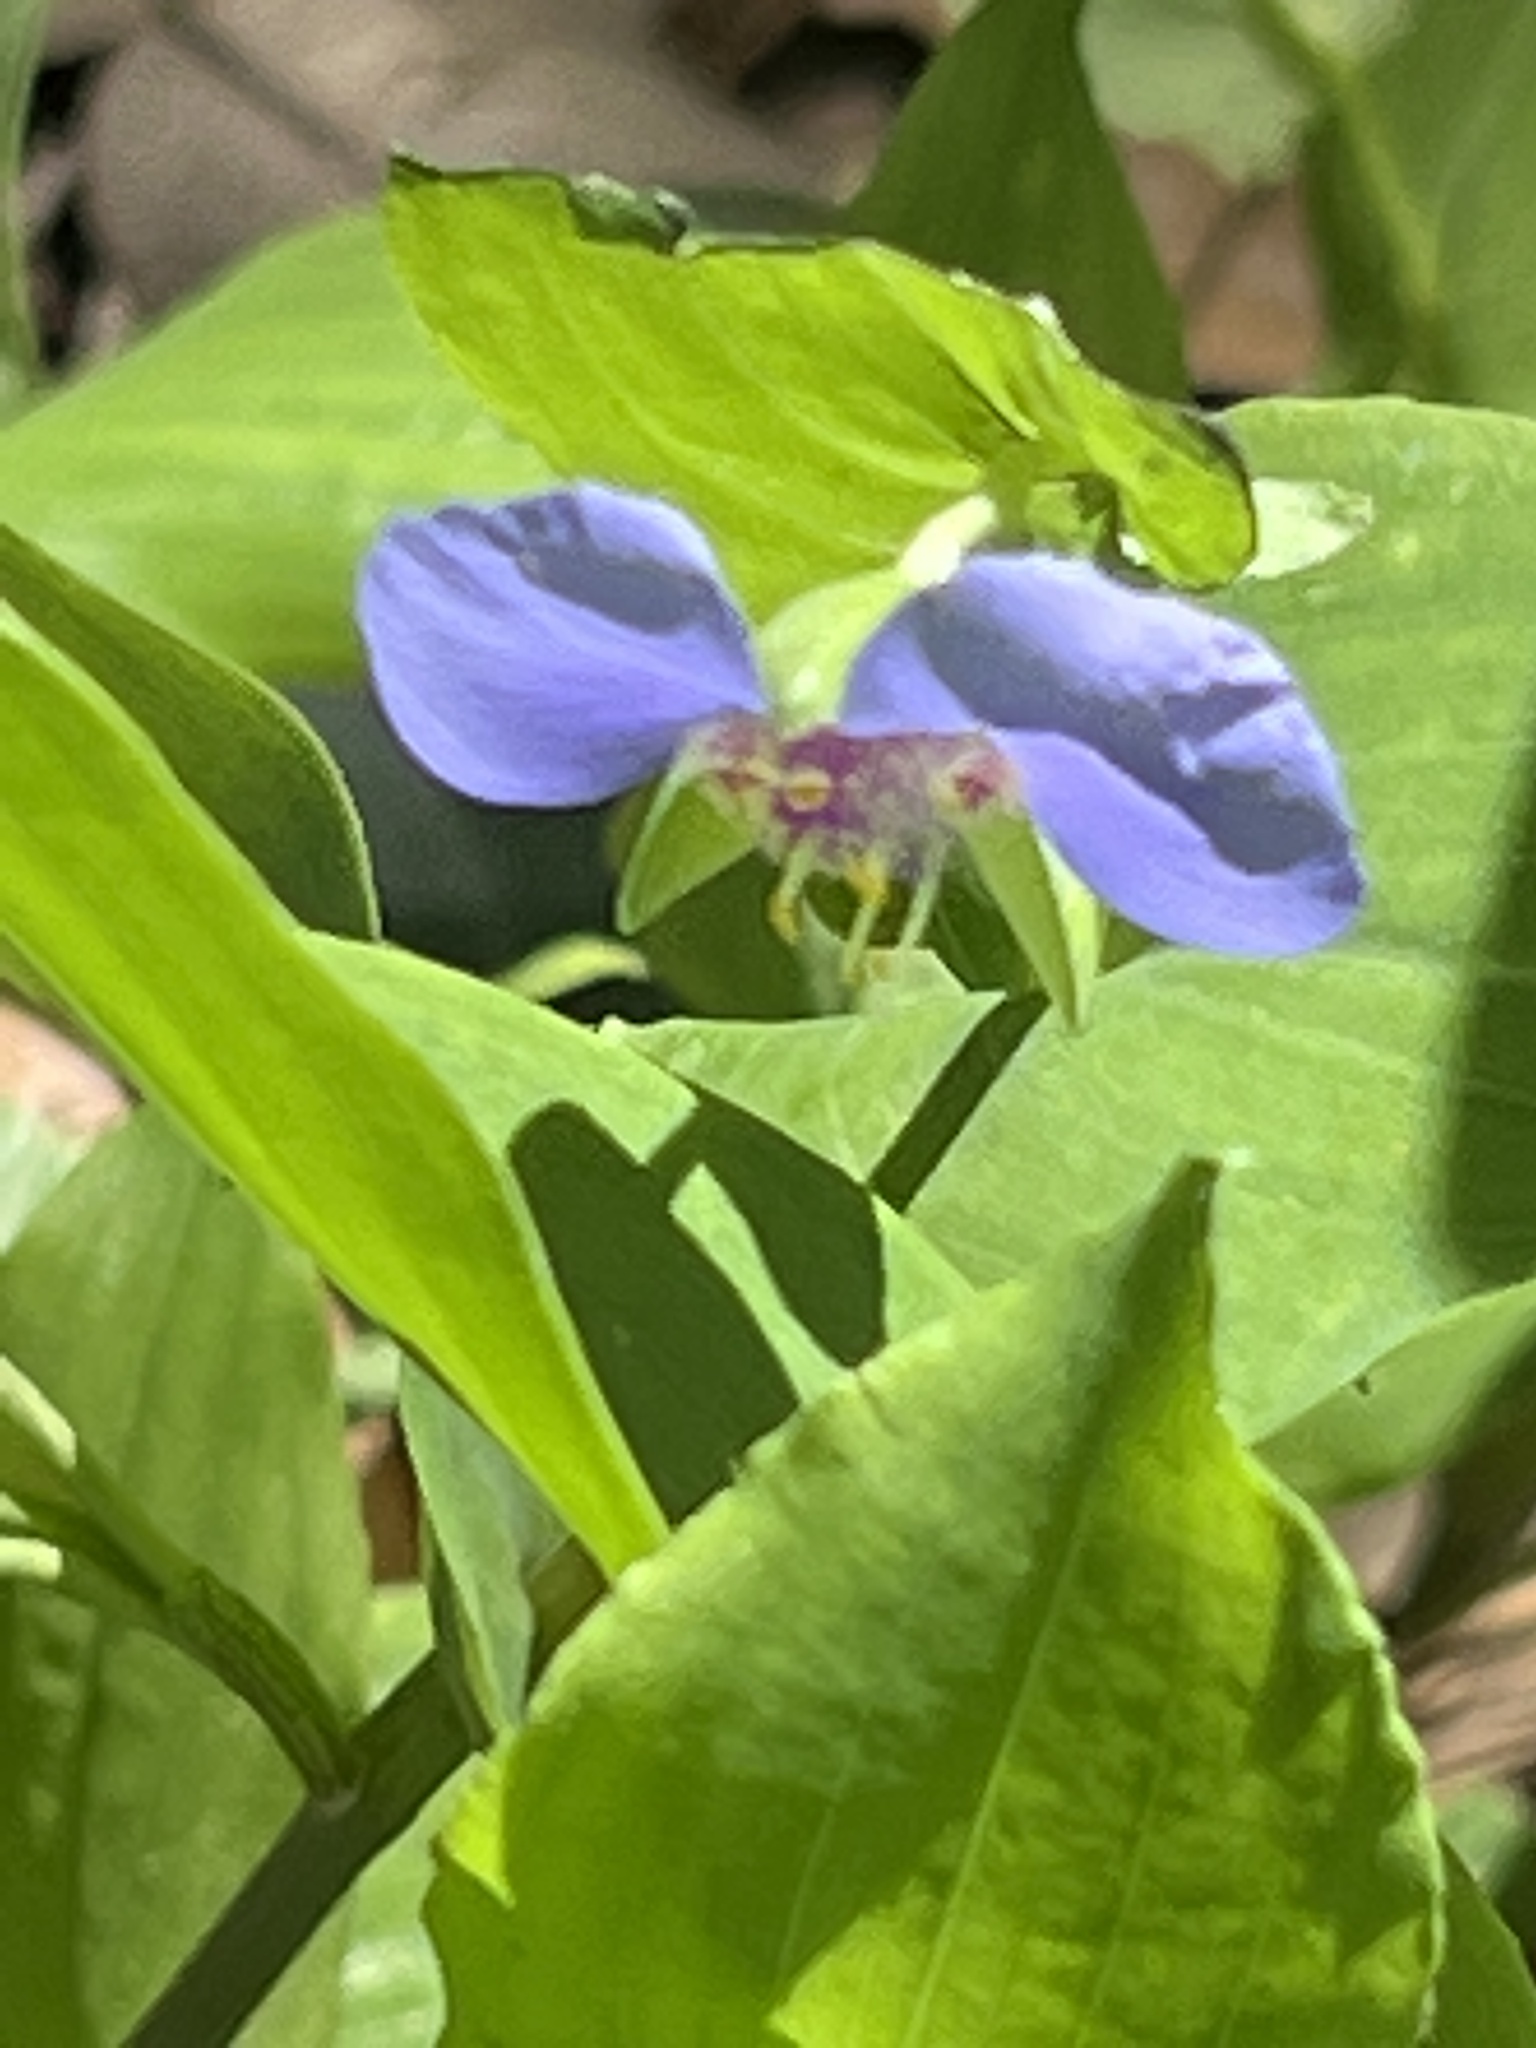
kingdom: Plantae
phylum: Tracheophyta
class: Liliopsida
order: Commelinales
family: Commelinaceae
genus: Tinantia
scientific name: Tinantia anomala
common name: False dayflower
